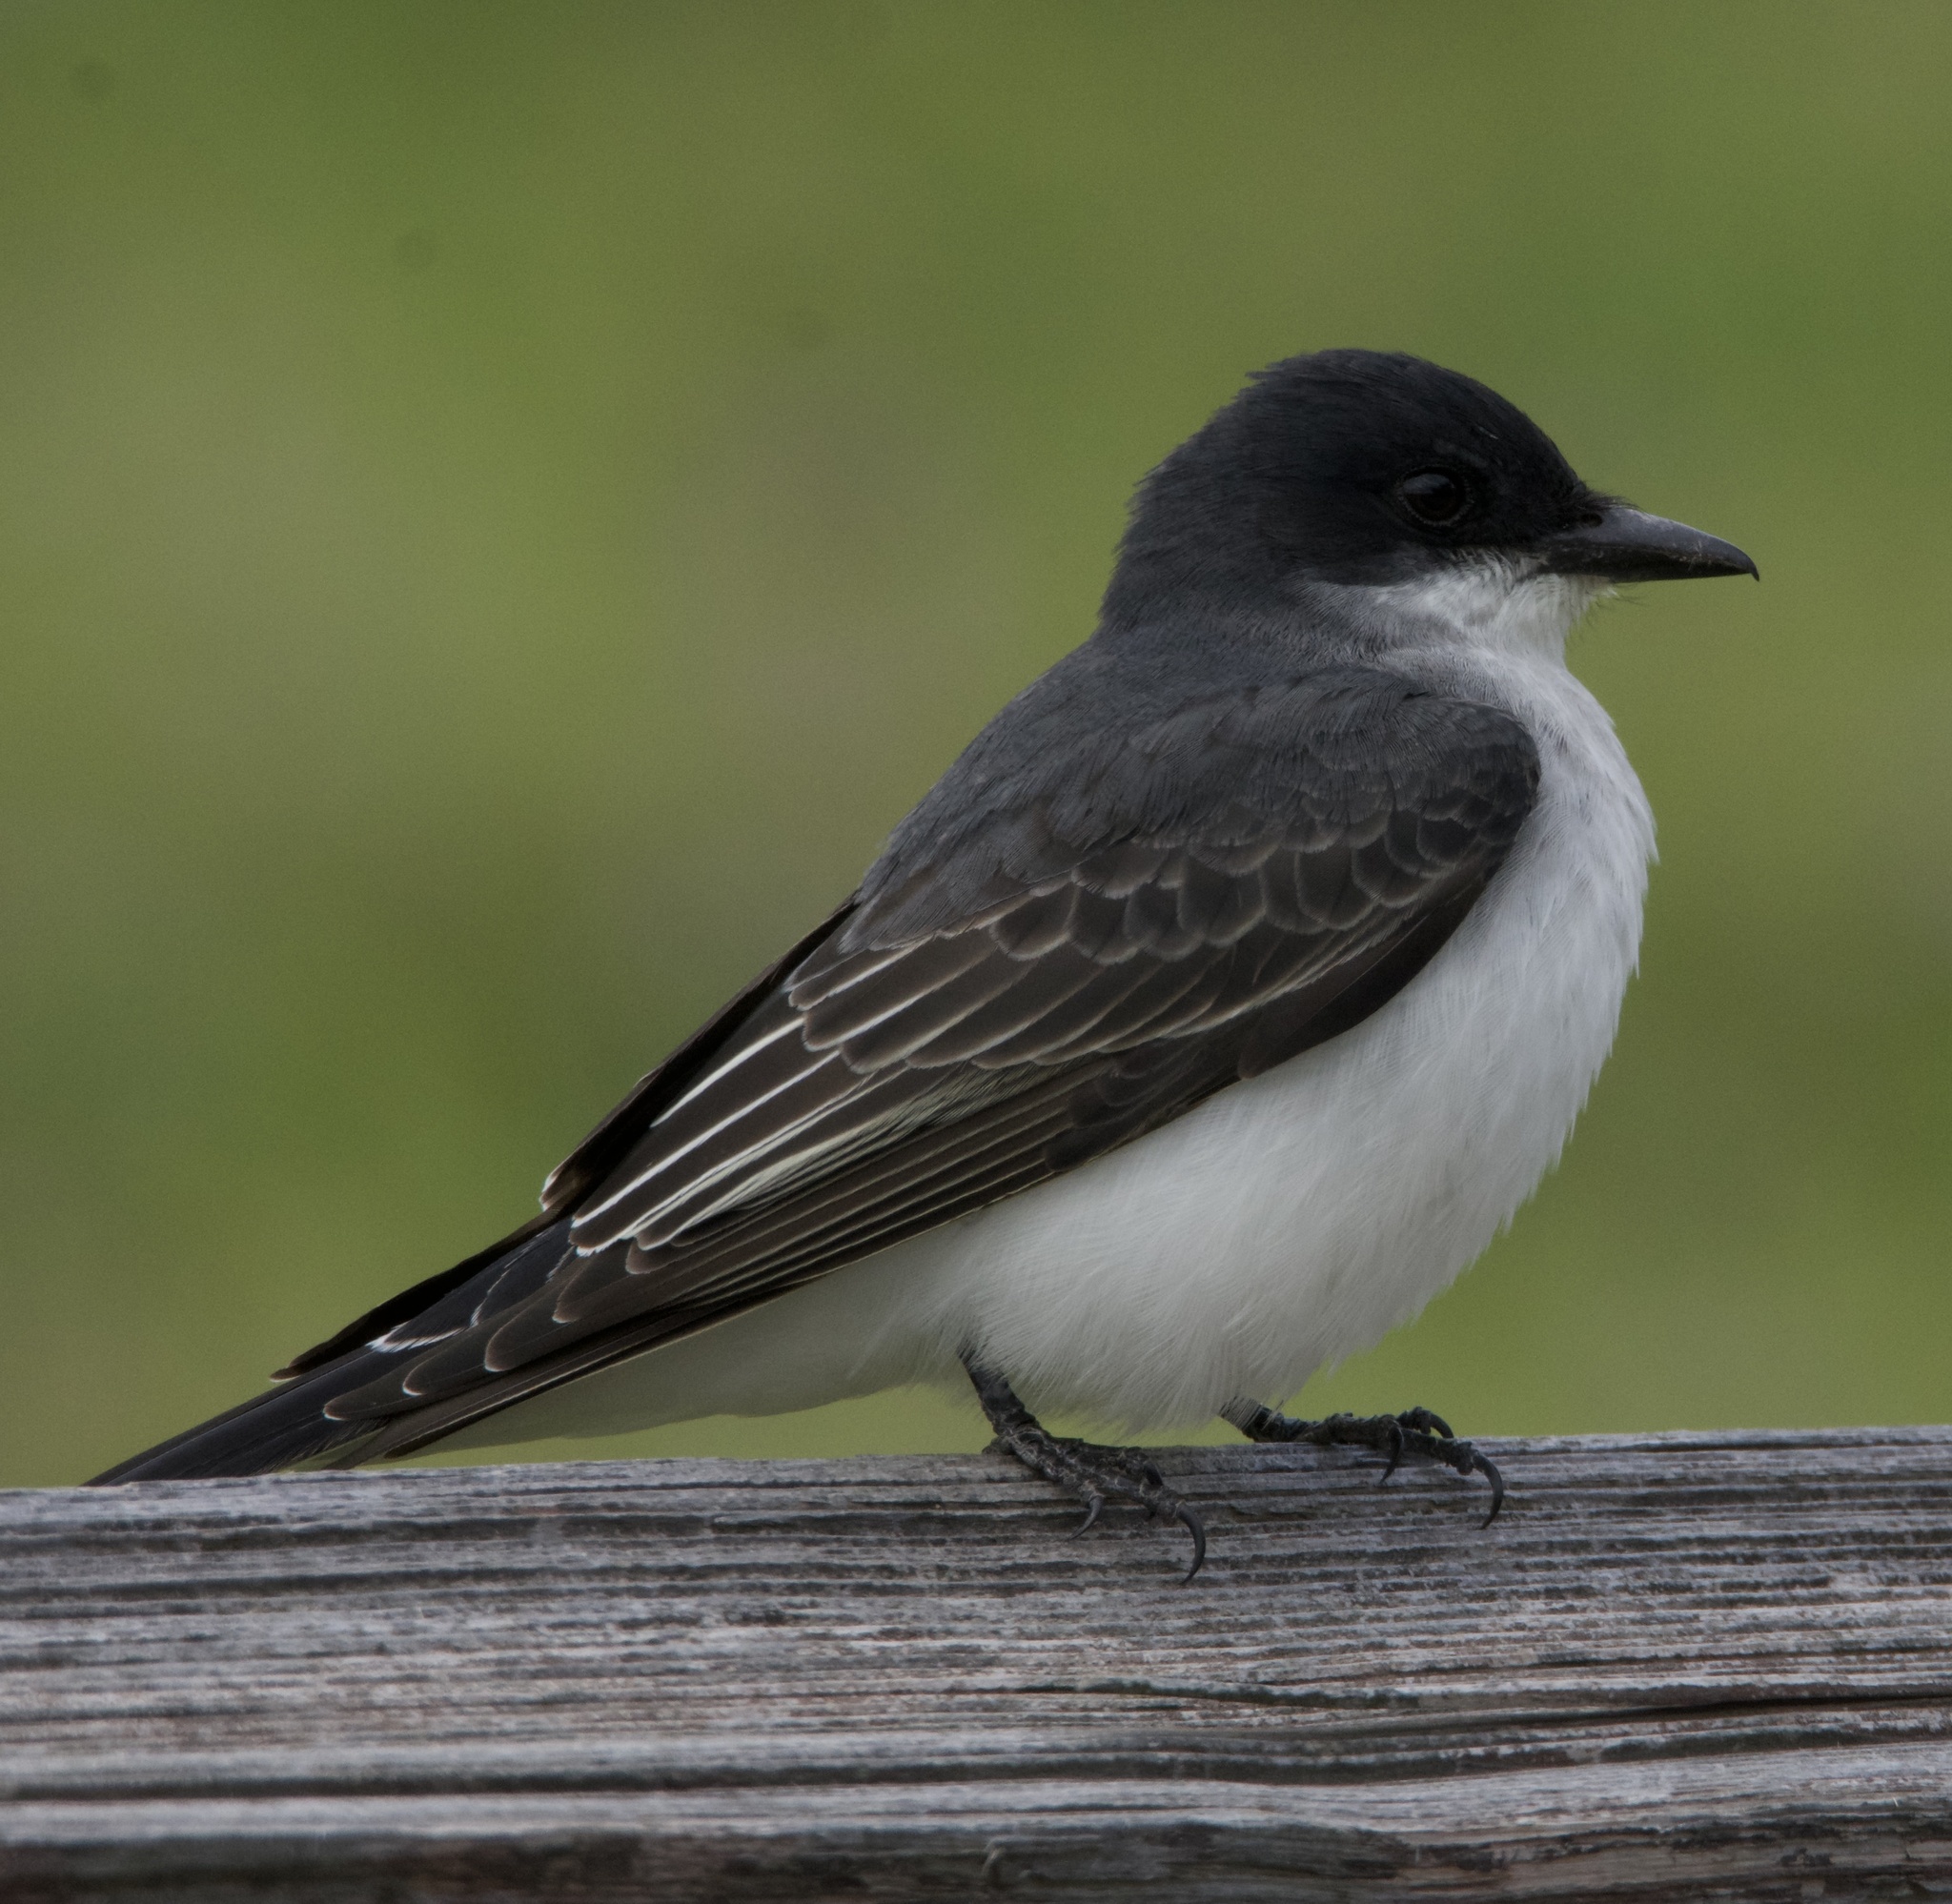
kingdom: Animalia
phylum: Chordata
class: Aves
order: Passeriformes
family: Tyrannidae
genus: Tyrannus
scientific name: Tyrannus tyrannus
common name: Eastern kingbird
